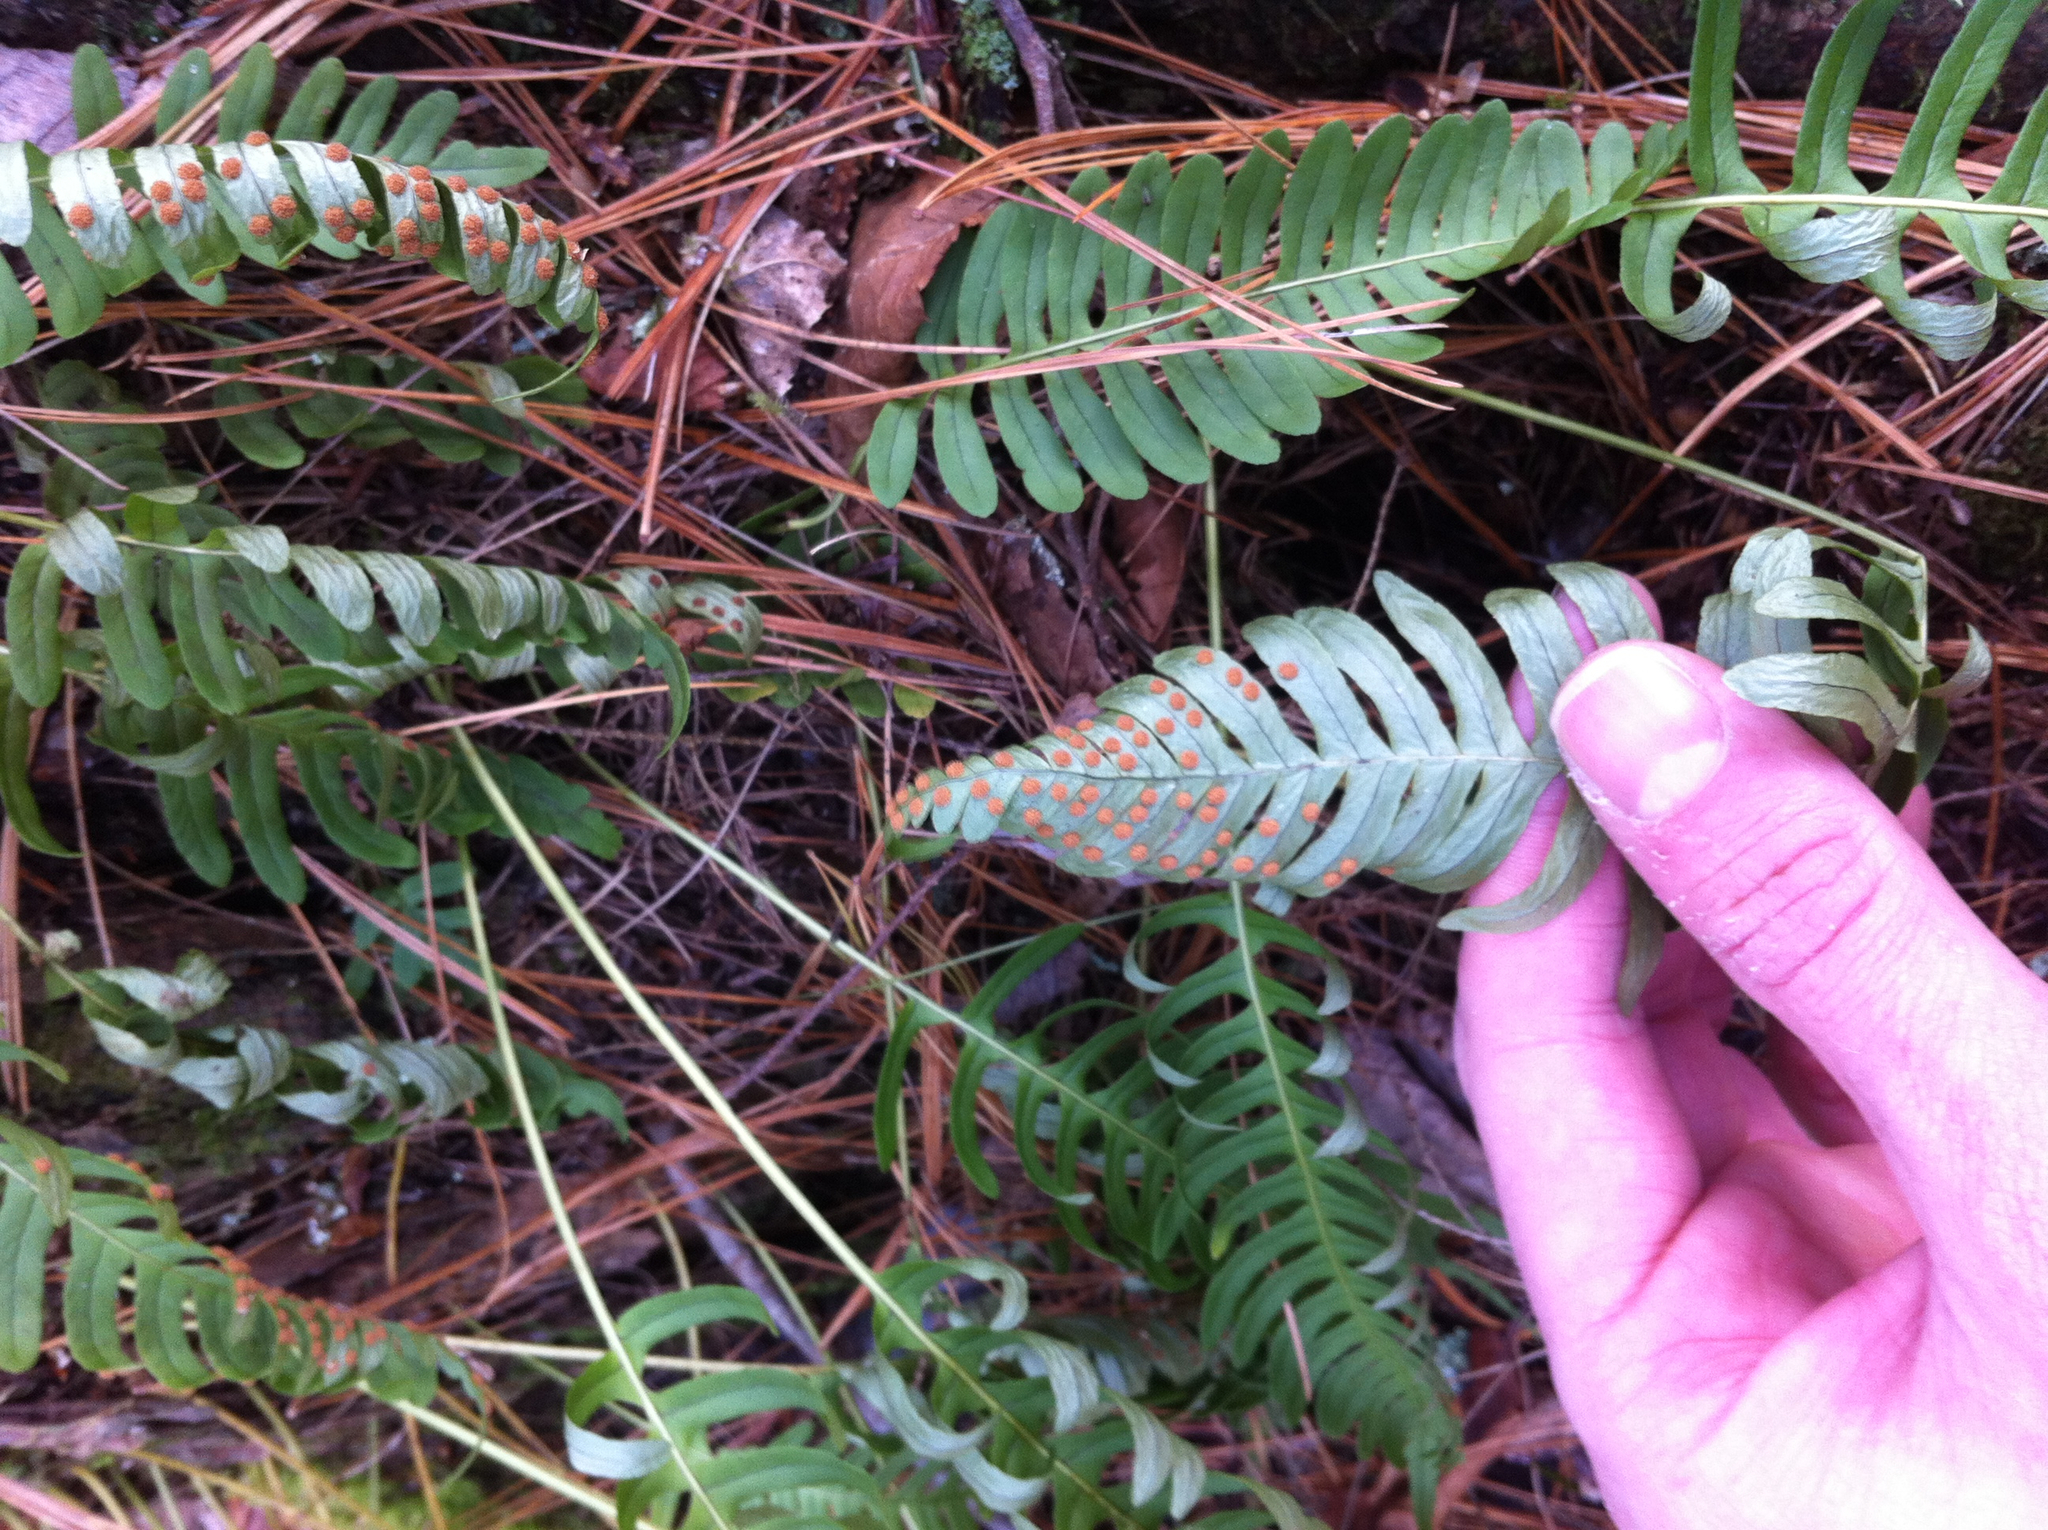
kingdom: Plantae
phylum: Tracheophyta
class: Polypodiopsida
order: Polypodiales
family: Polypodiaceae
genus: Polypodium
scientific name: Polypodium virginianum
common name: American wall fern
